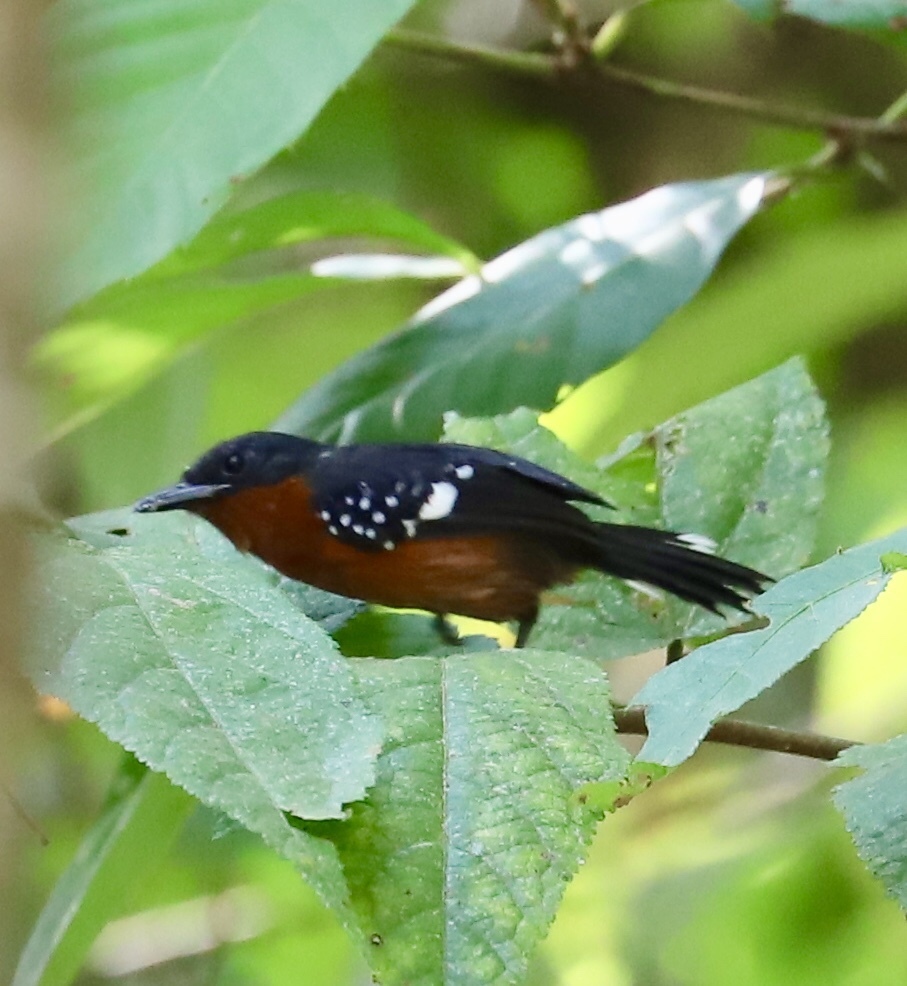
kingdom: Animalia
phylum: Chordata
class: Aves
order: Passeriformes
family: Thamnophilidae
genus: Microrhopias
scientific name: Microrhopias quixensis
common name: Dot-winged antwren
